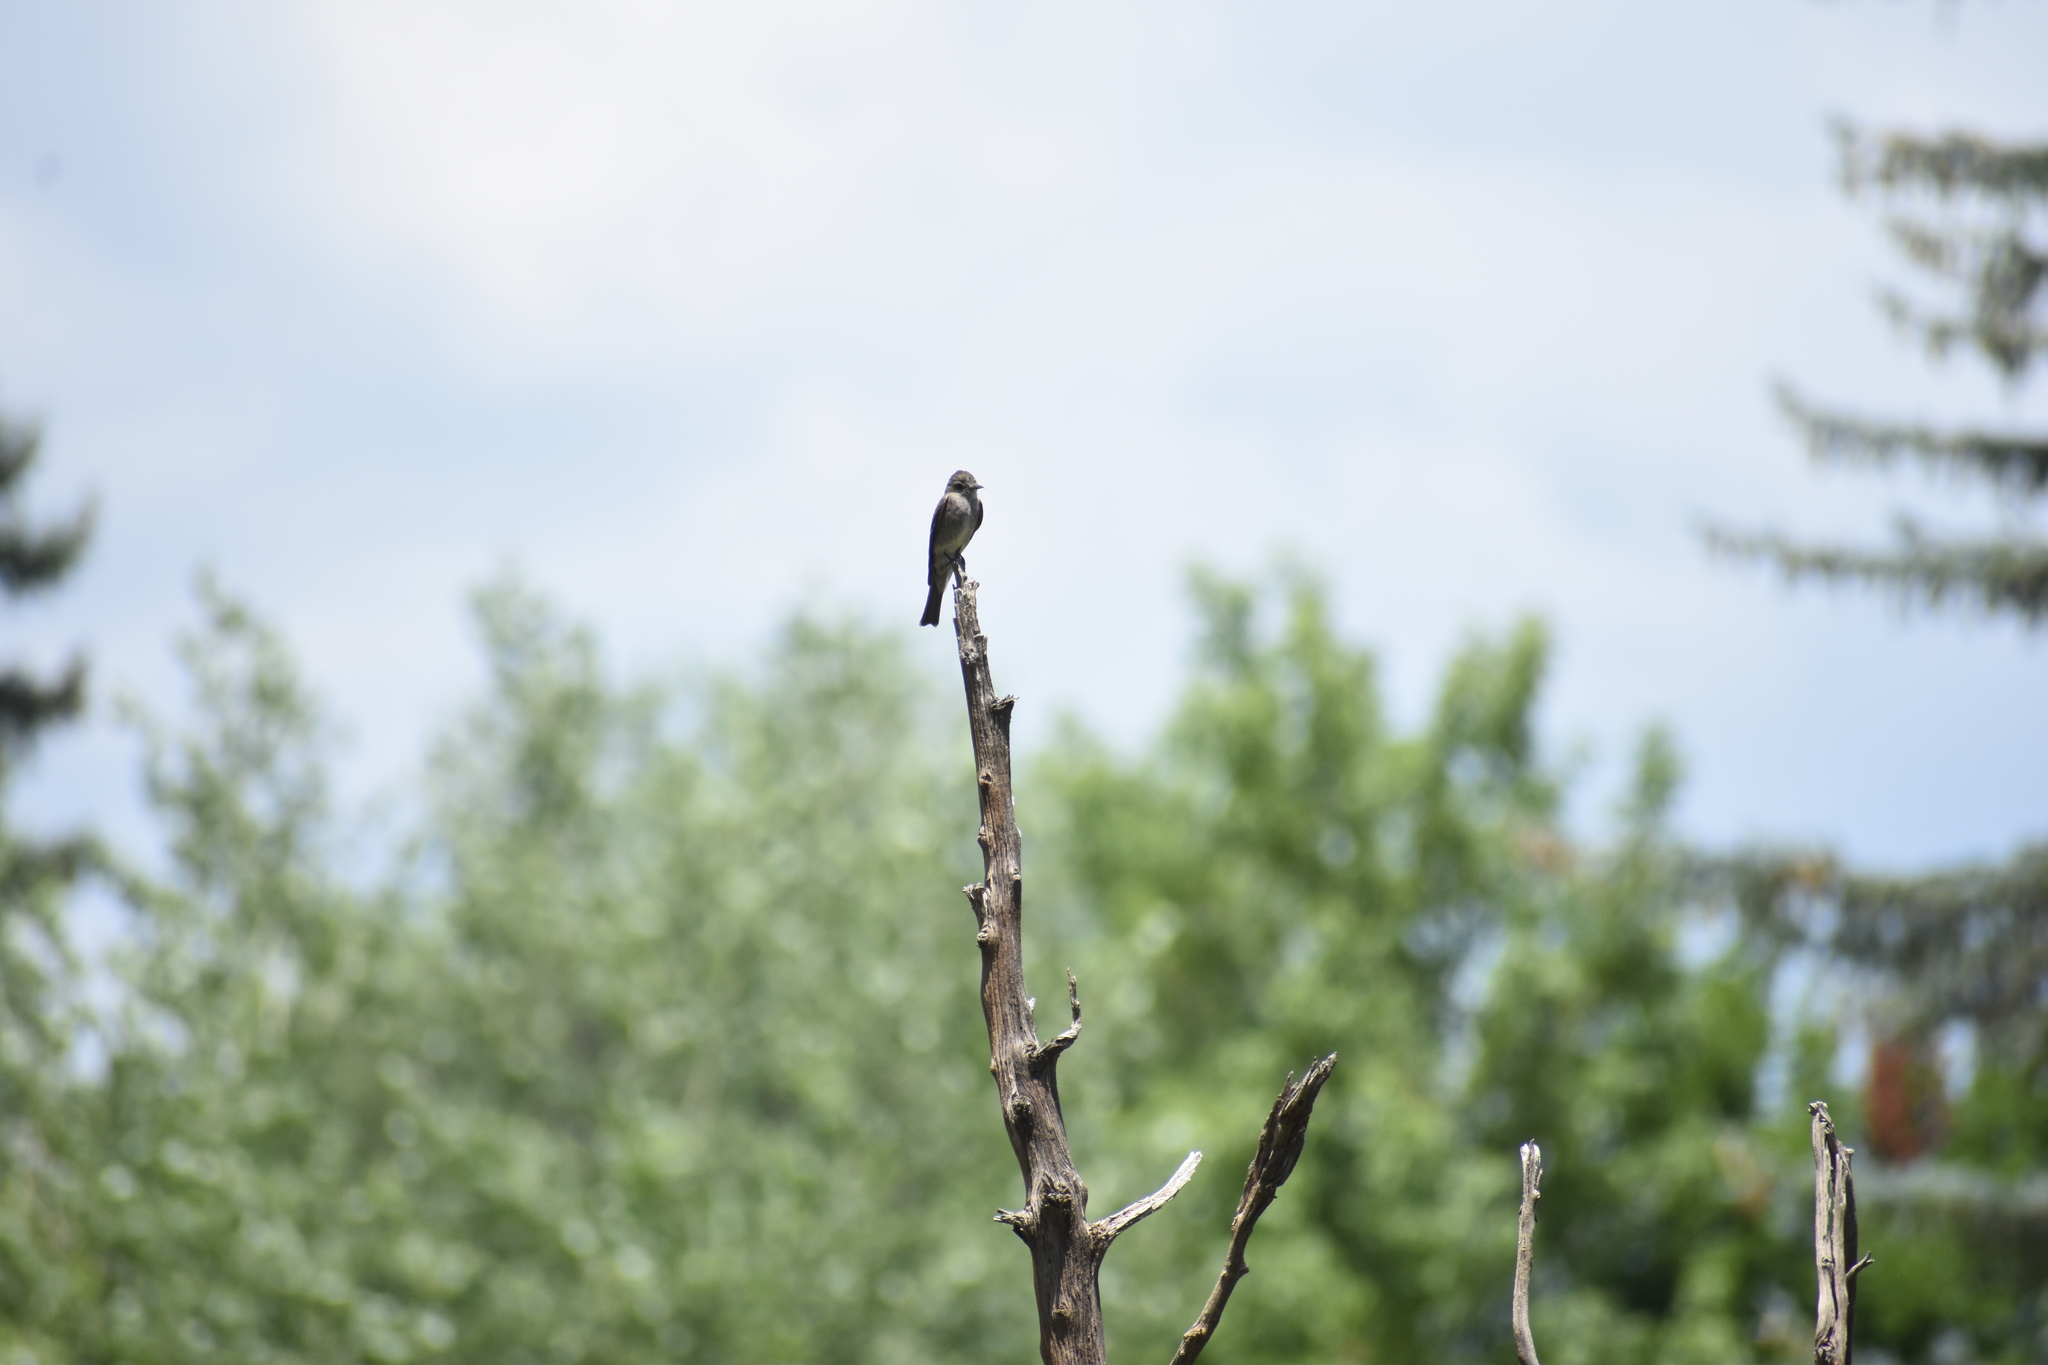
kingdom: Animalia
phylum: Chordata
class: Aves
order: Passeriformes
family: Tyrannidae
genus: Contopus
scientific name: Contopus sordidulus
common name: Western wood-pewee
